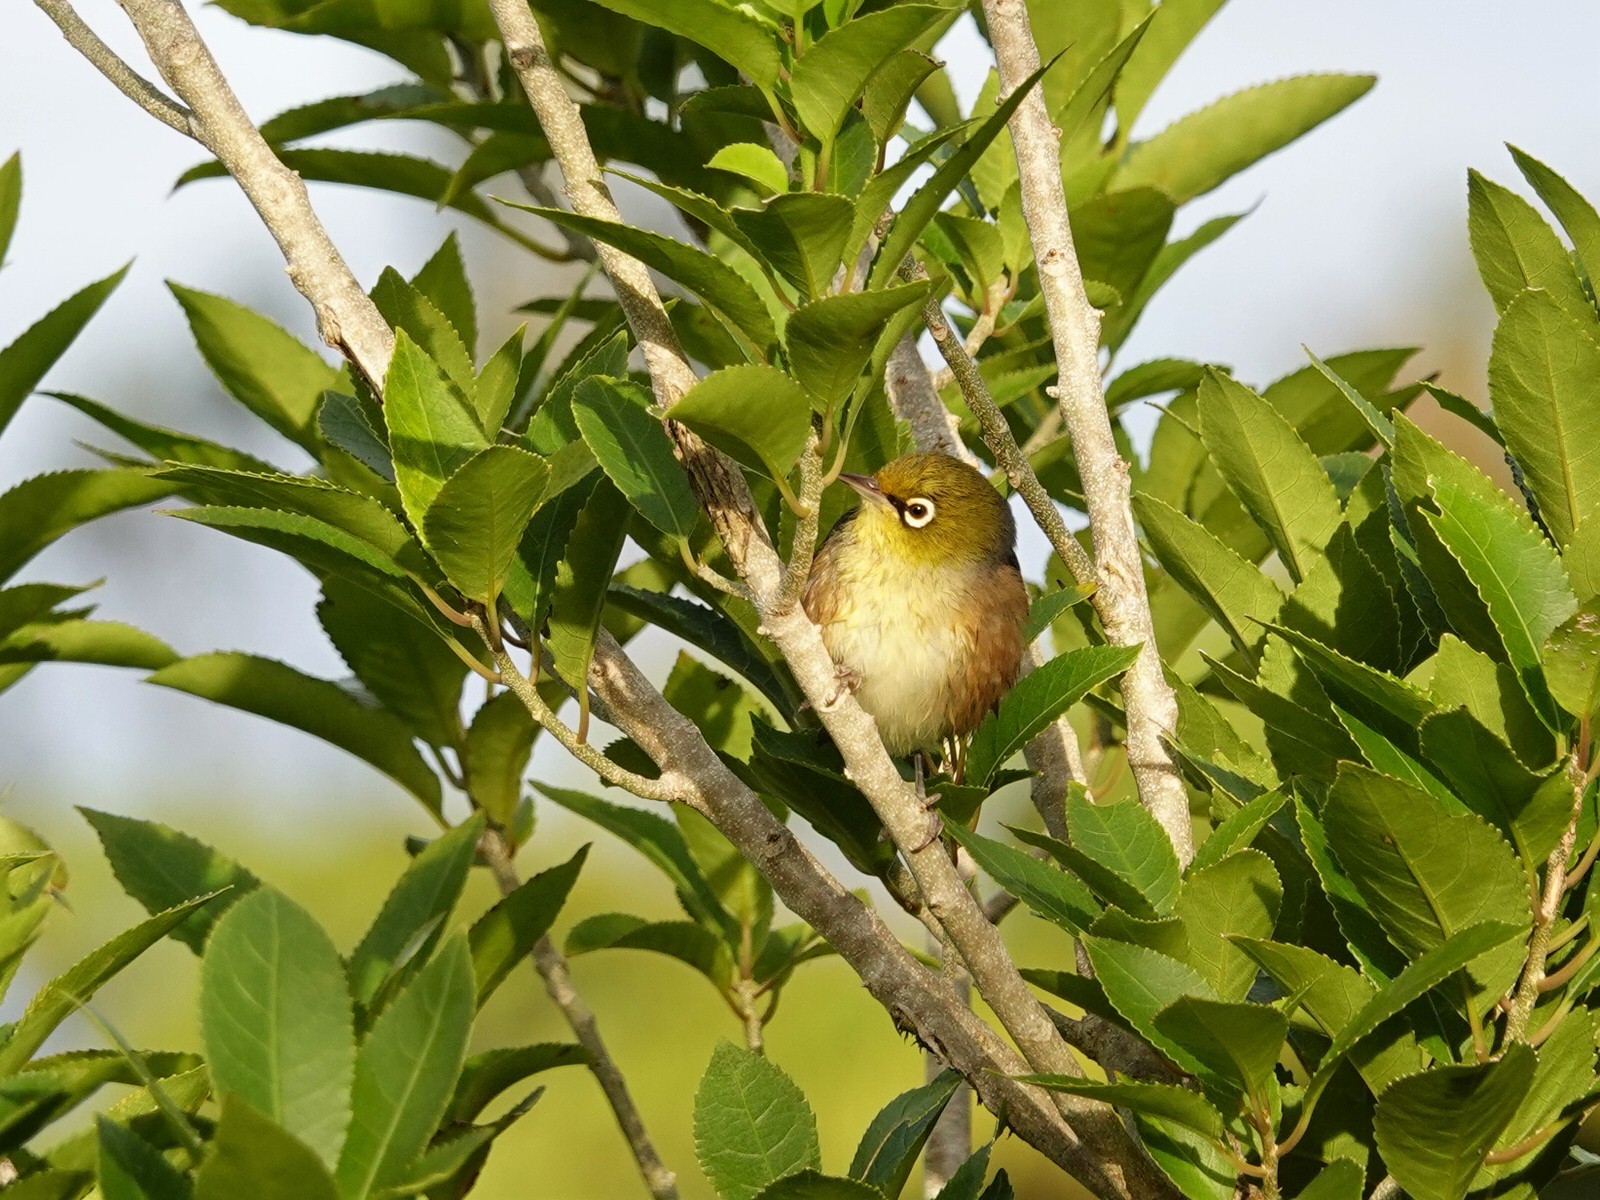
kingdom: Animalia
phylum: Chordata
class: Aves
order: Passeriformes
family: Zosteropidae
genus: Zosterops
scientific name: Zosterops lateralis
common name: Silvereye
